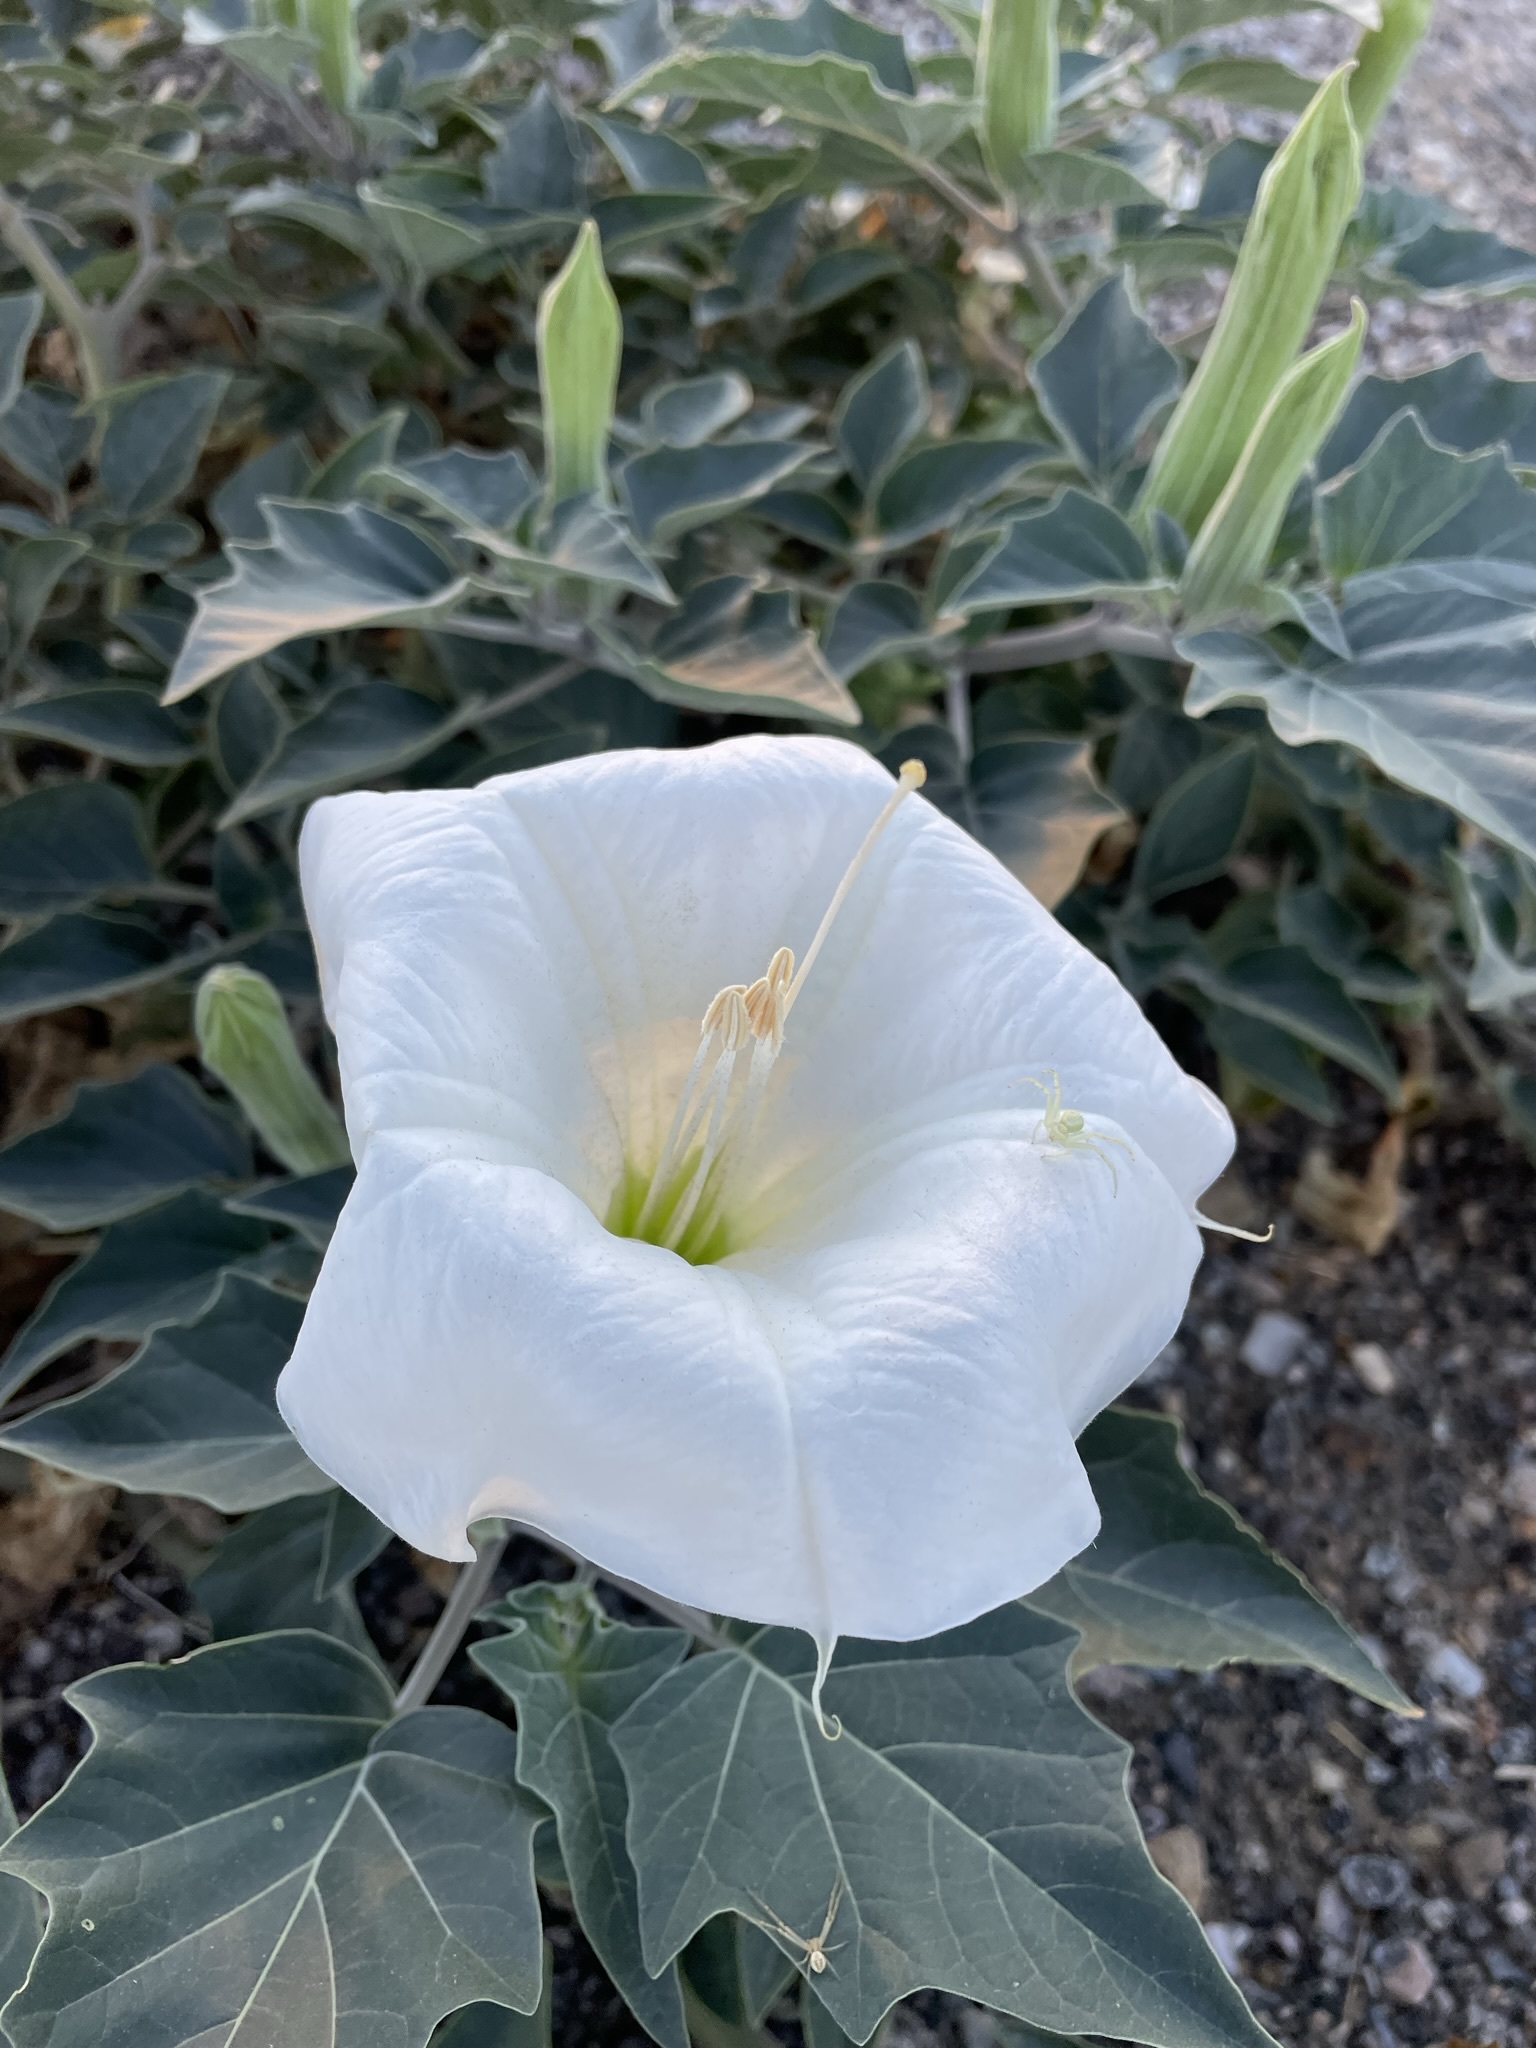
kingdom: Plantae
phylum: Tracheophyta
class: Magnoliopsida
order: Solanales
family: Solanaceae
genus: Datura
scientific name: Datura wrightii
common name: Sacred thorn-apple
